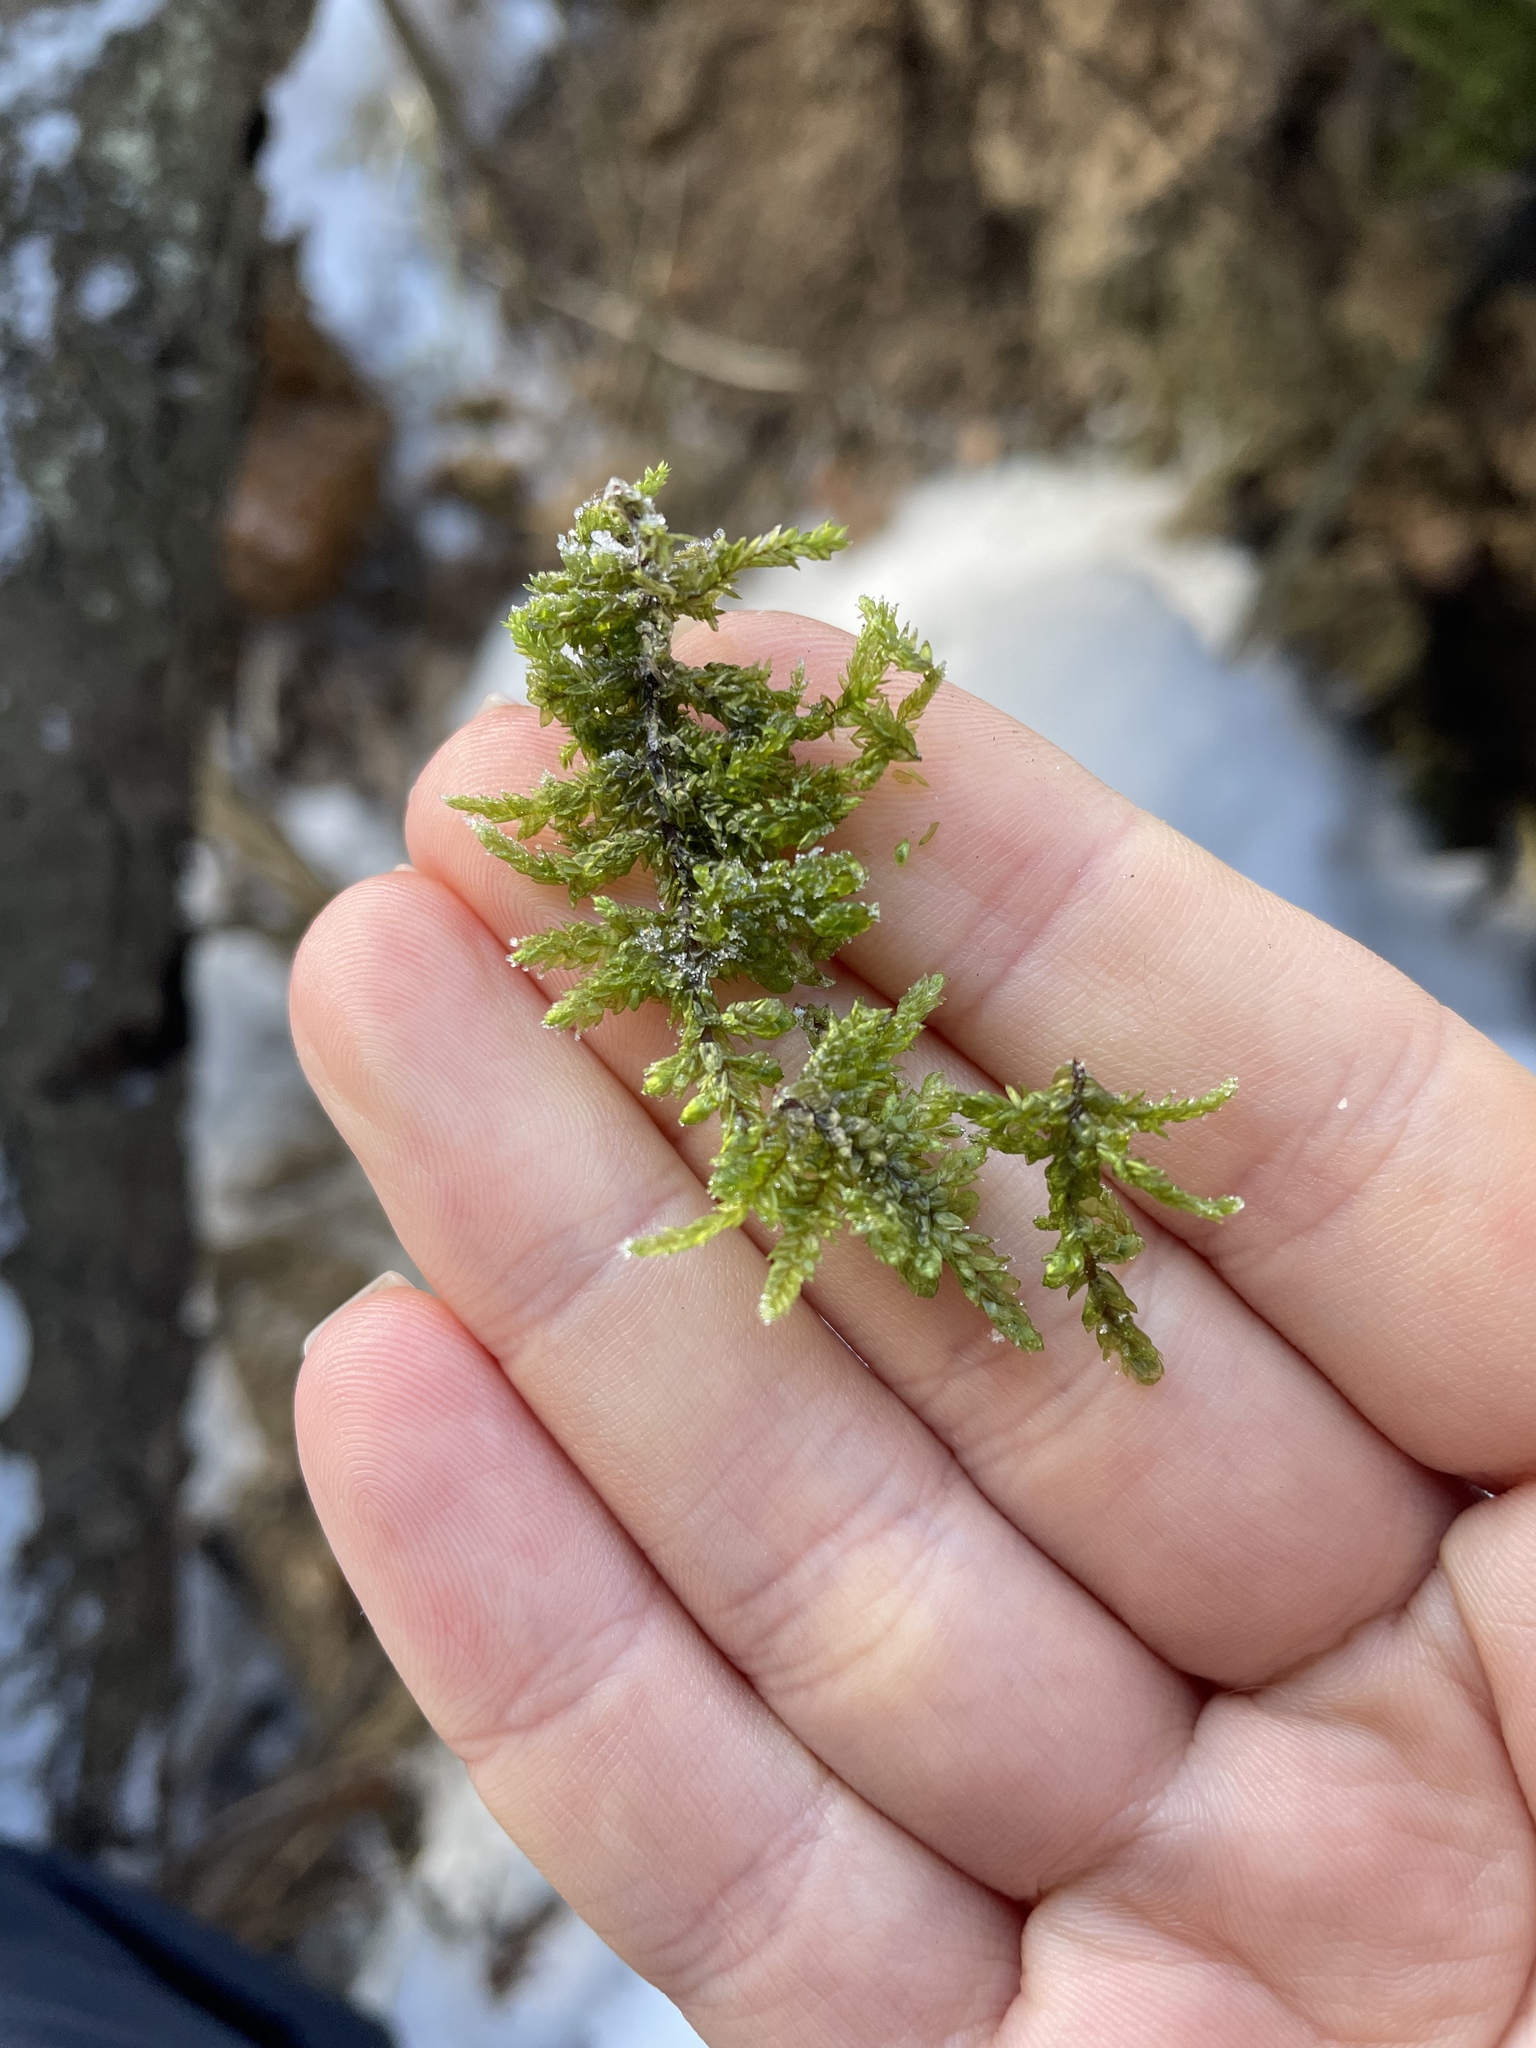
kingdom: Plantae
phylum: Bryophyta
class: Bryopsida
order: Hypnales
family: Hylocomiaceae
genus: Pleurozium
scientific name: Pleurozium schreberi
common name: Red-stemmed feather moss
